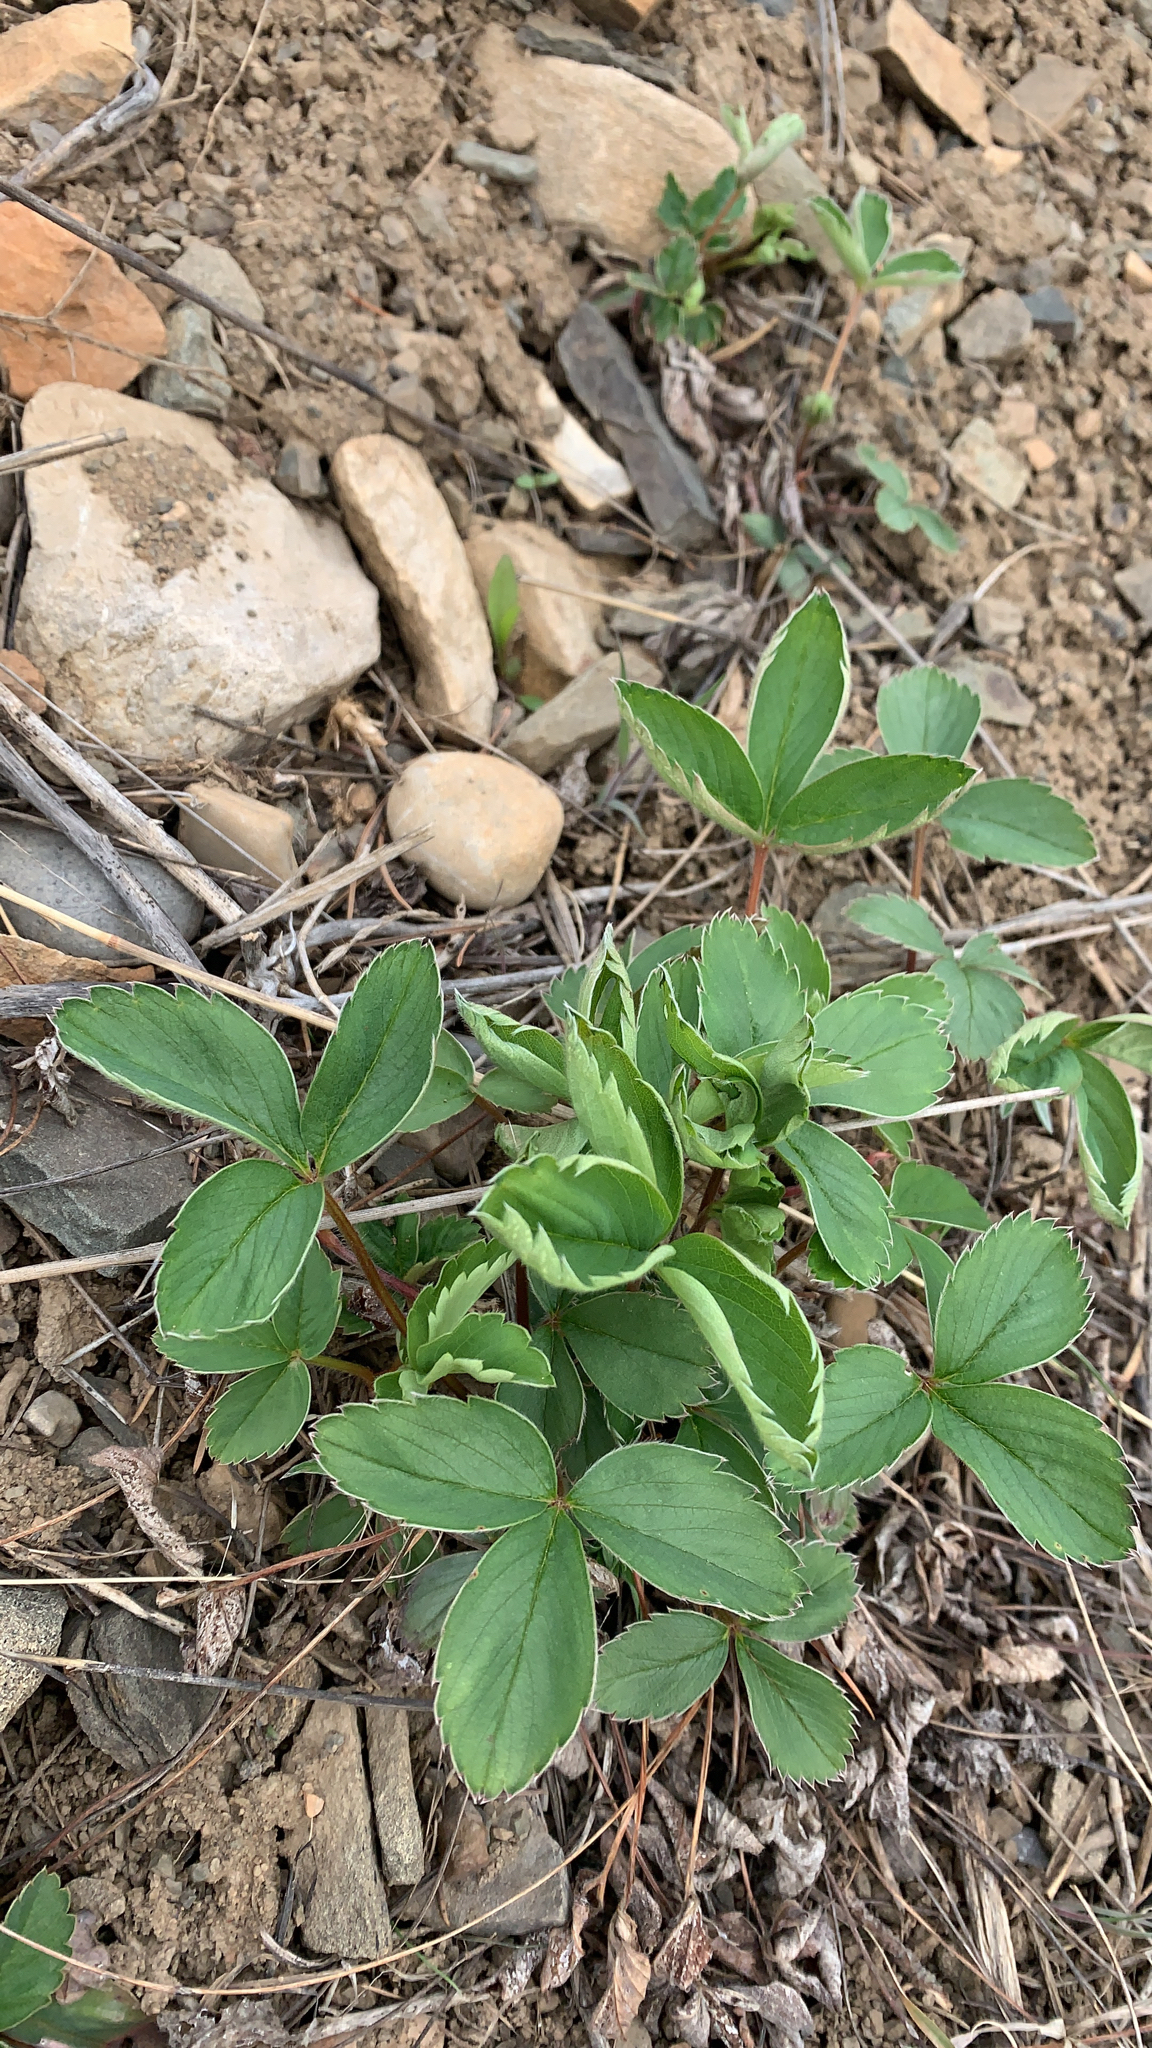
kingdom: Plantae
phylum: Tracheophyta
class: Magnoliopsida
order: Rosales
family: Rosaceae
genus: Fragaria
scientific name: Fragaria virginiana
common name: Thickleaved wild strawberry
